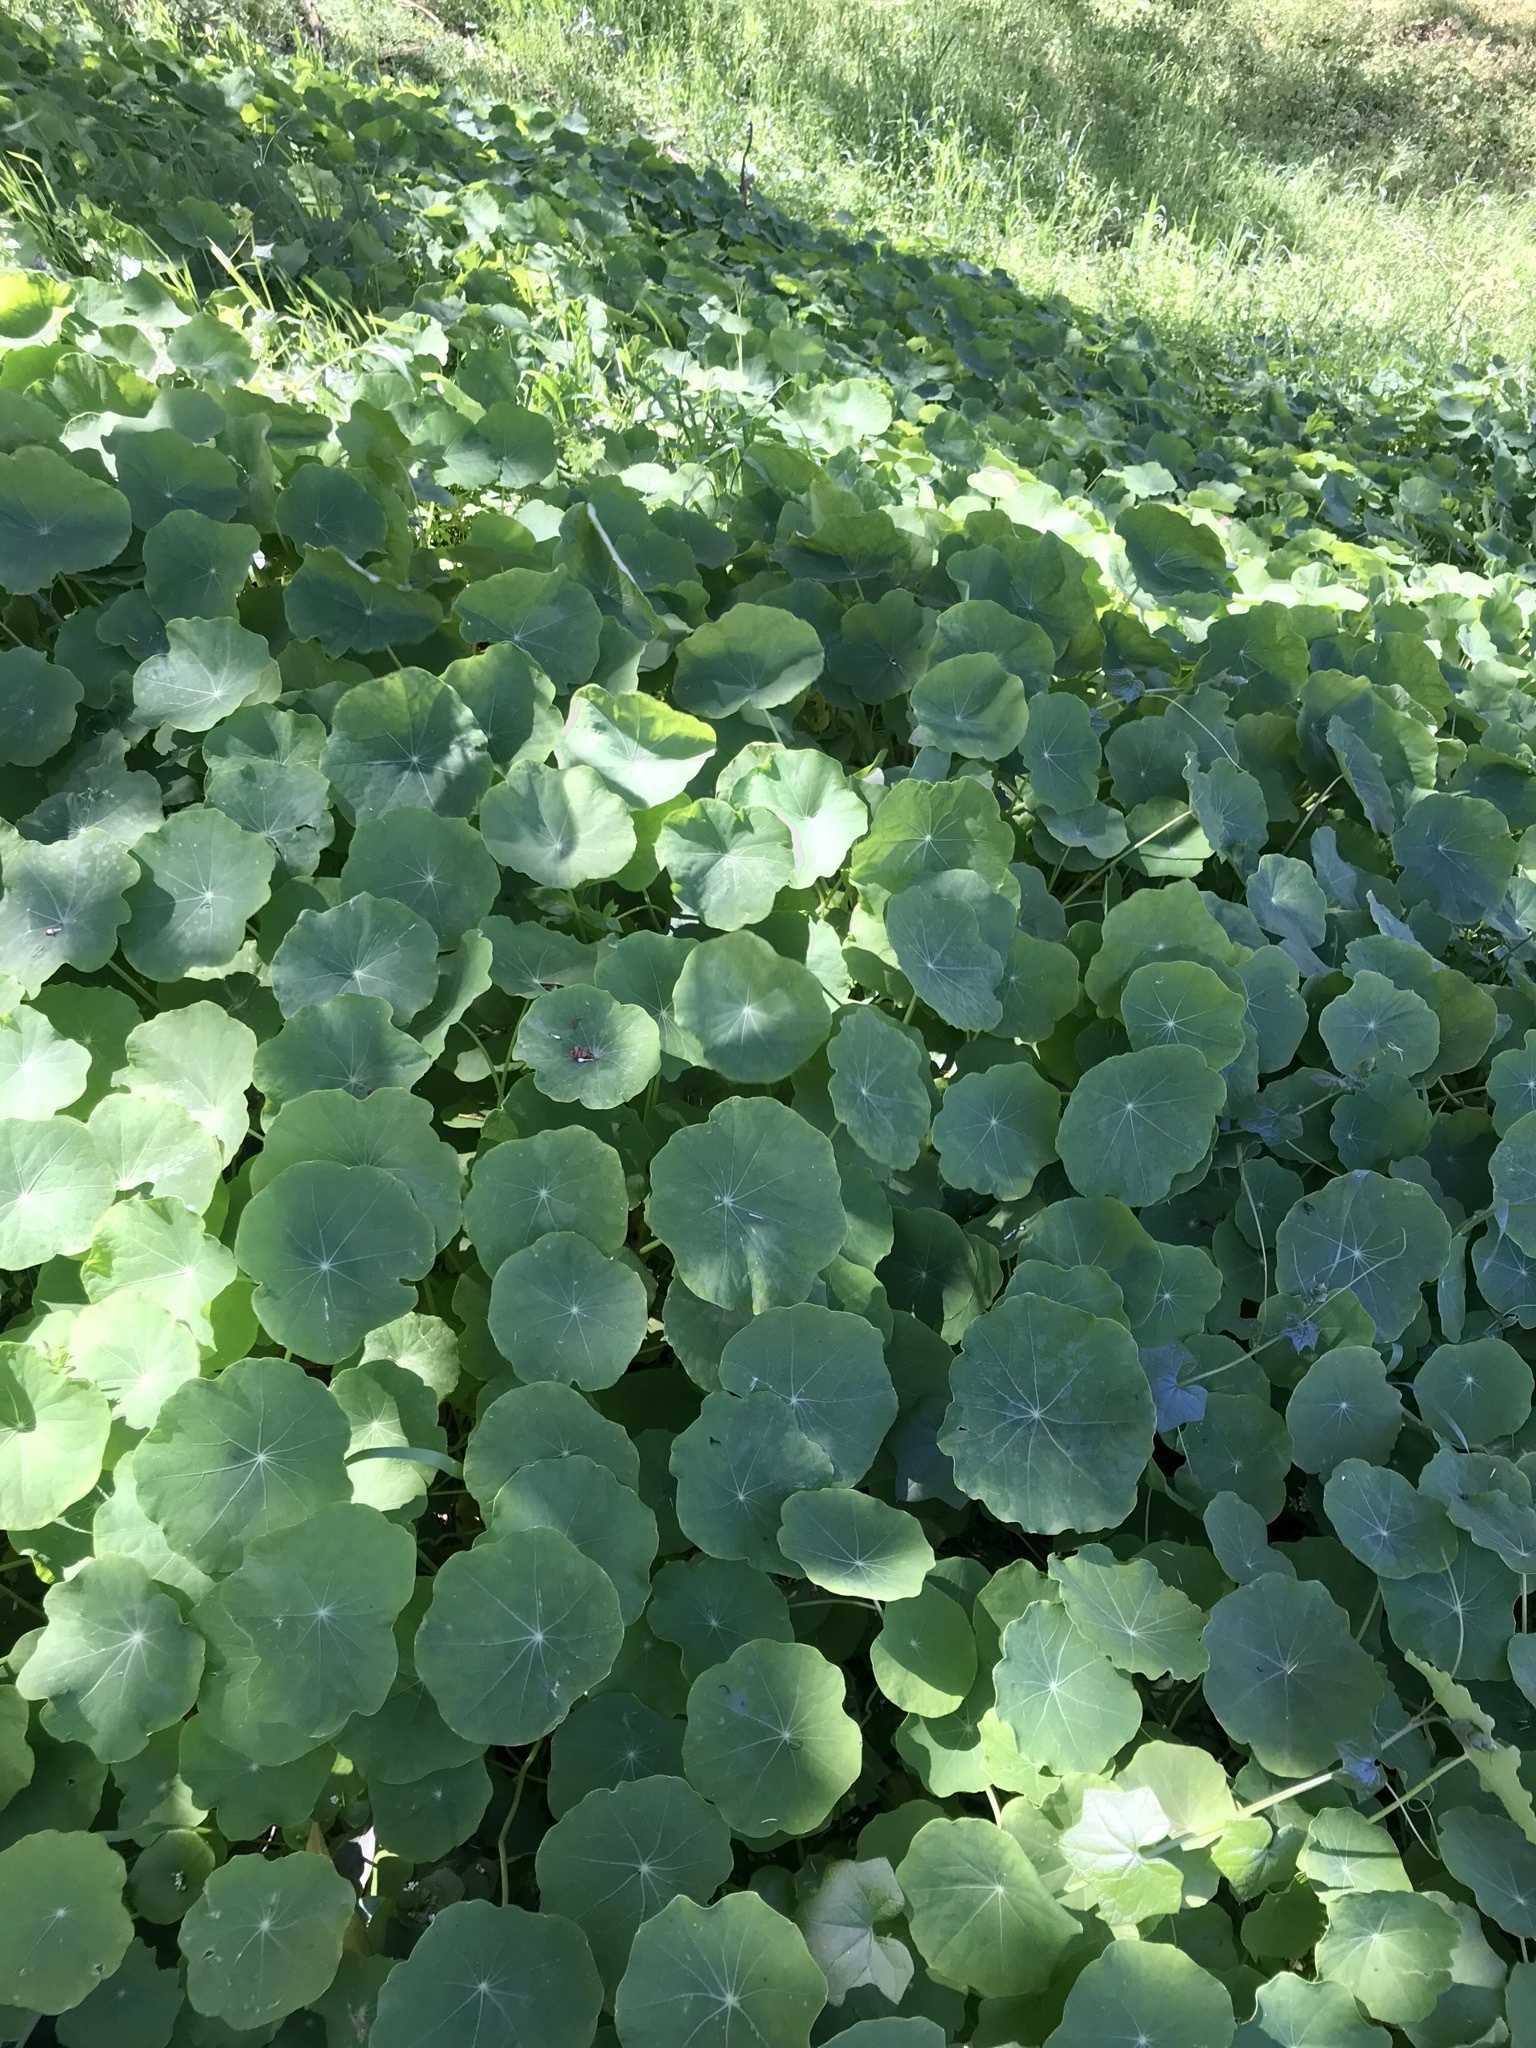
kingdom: Plantae
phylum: Tracheophyta
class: Magnoliopsida
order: Brassicales
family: Tropaeolaceae
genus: Tropaeolum
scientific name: Tropaeolum majus
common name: Nasturtium
